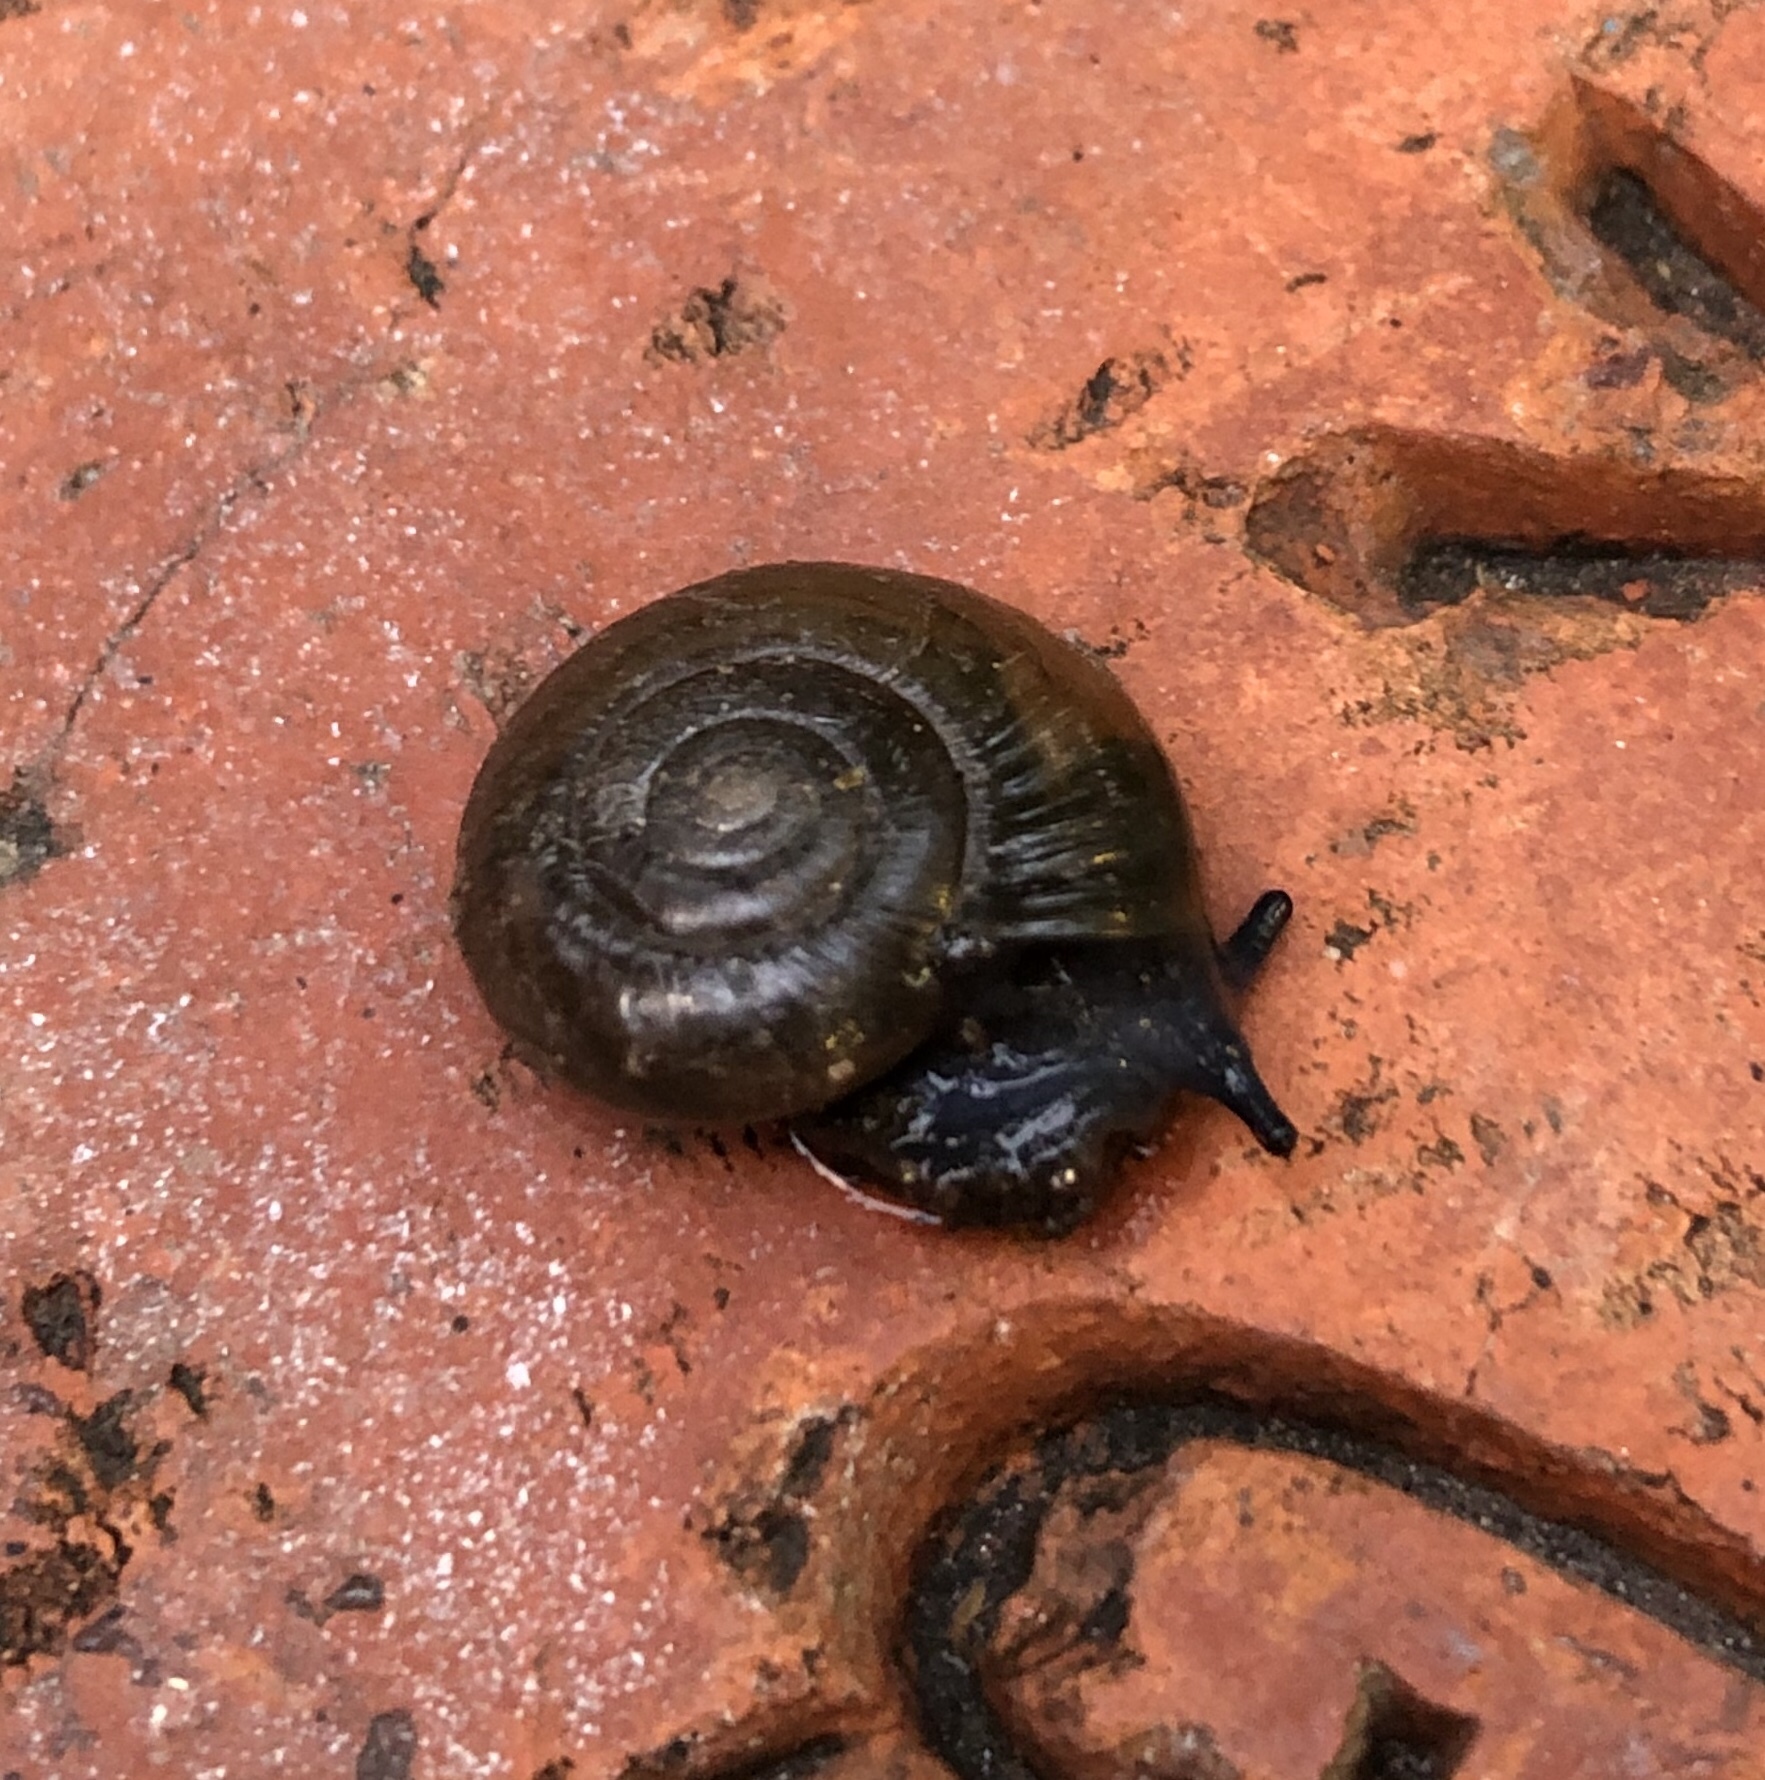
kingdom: Animalia
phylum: Mollusca
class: Gastropoda
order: Stylommatophora
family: Oxychilidae
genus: Oxychilus
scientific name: Oxychilus draparnaudi
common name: Draparnaud's glass snail
